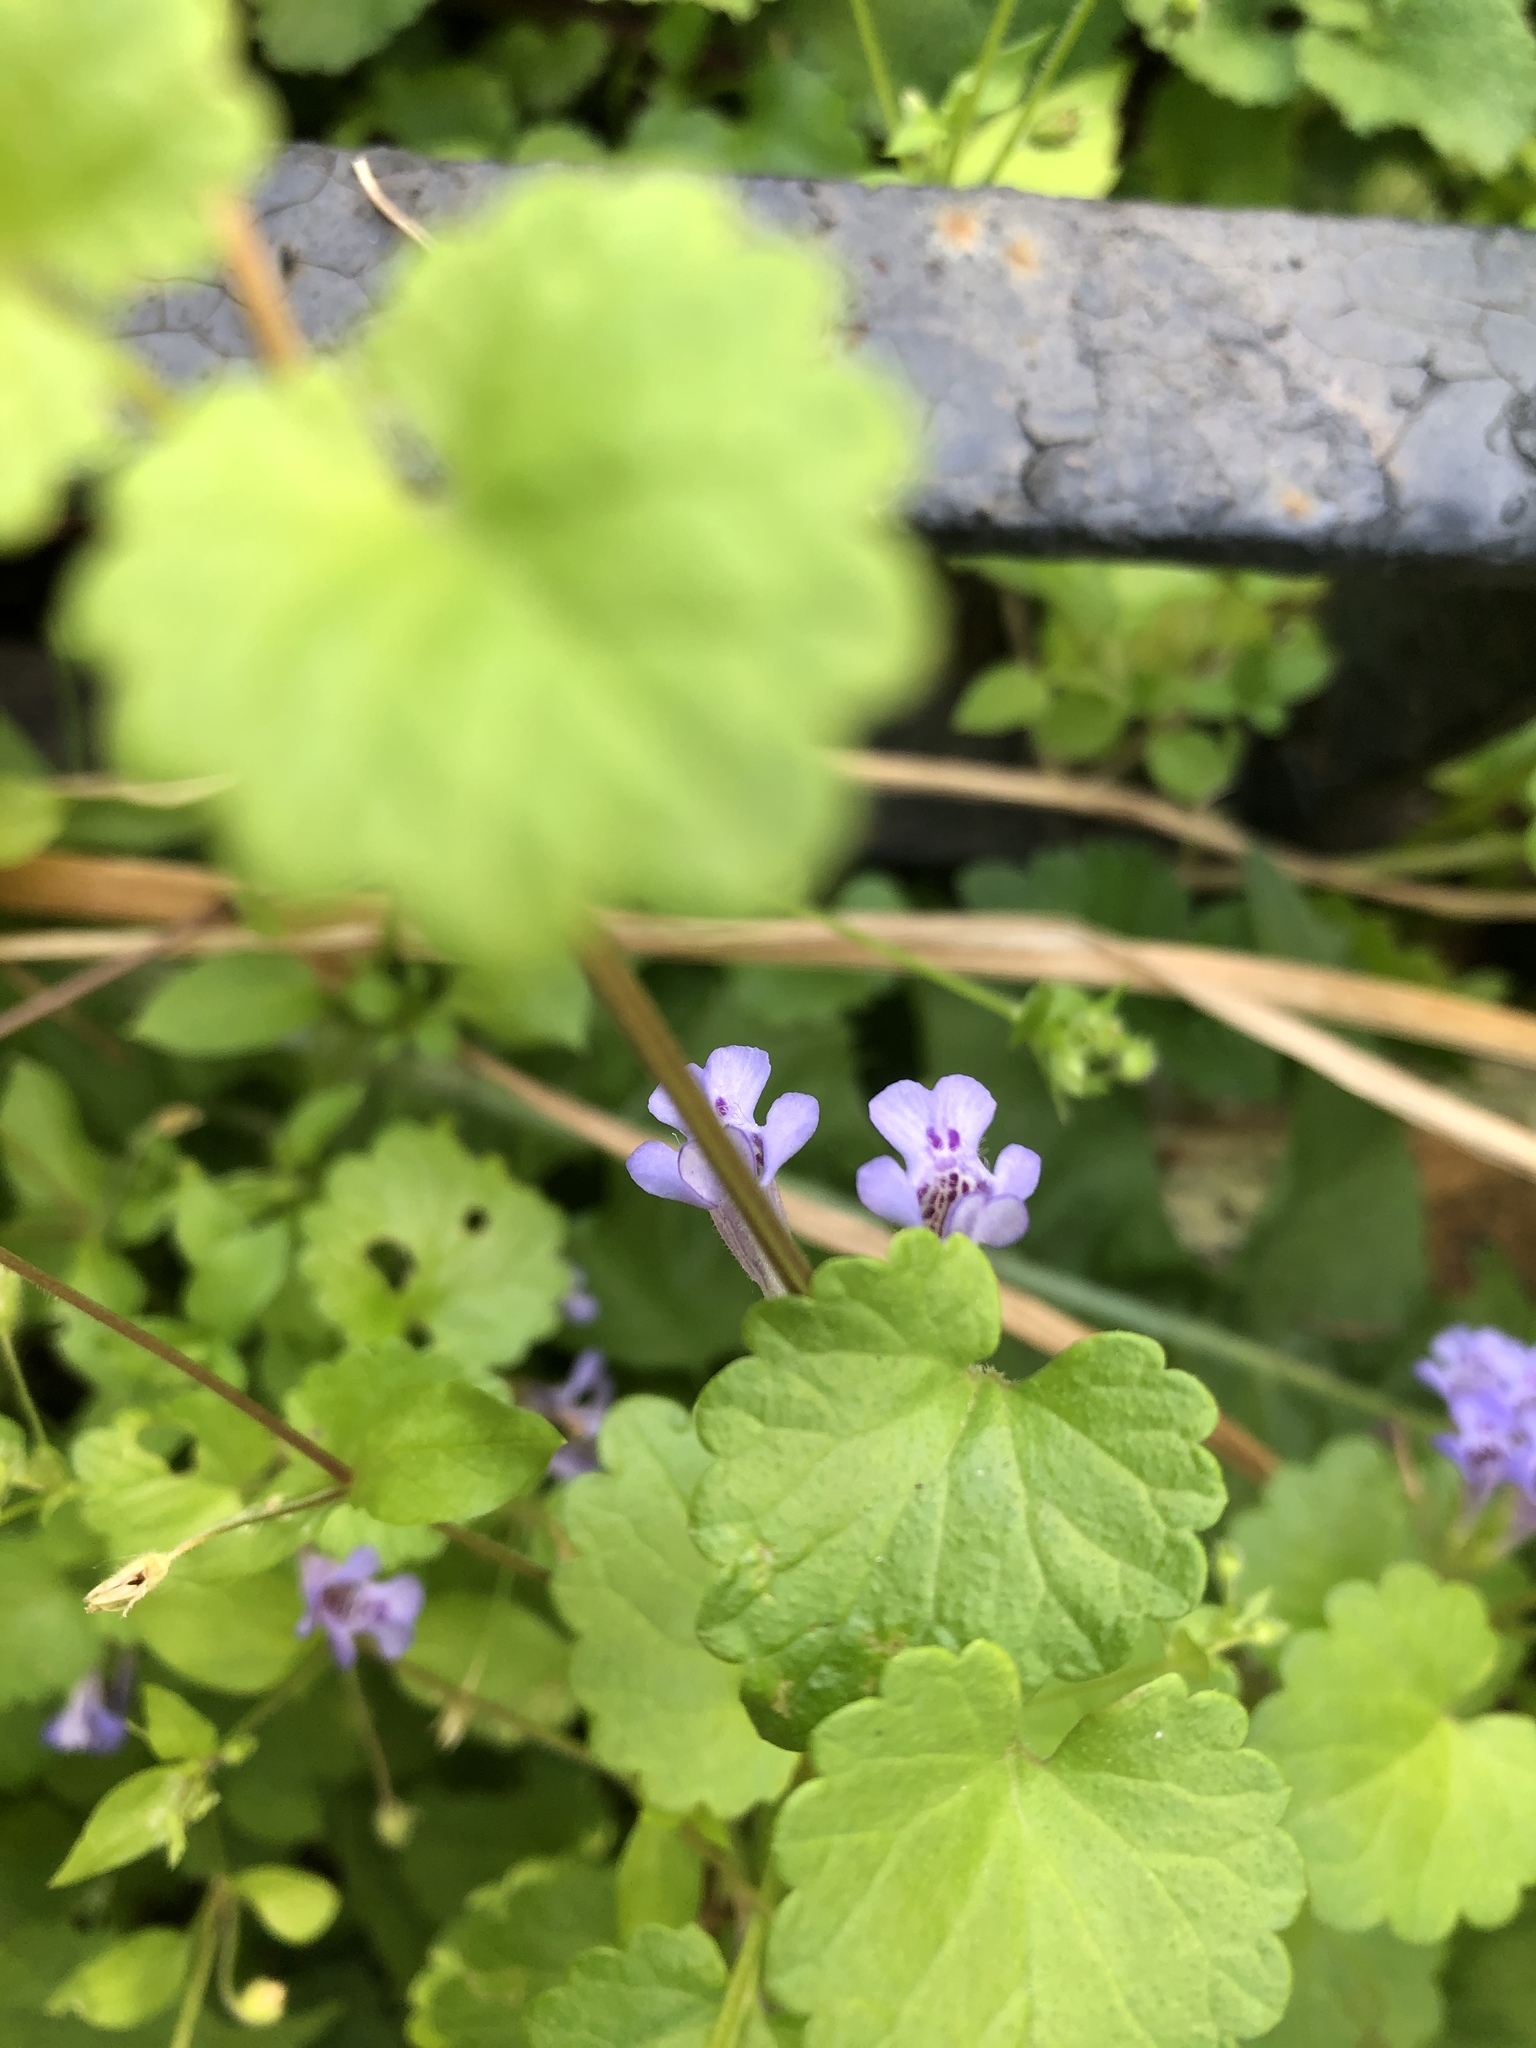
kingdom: Plantae
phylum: Tracheophyta
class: Magnoliopsida
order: Lamiales
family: Lamiaceae
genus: Glechoma
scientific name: Glechoma hederacea
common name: Ground ivy
